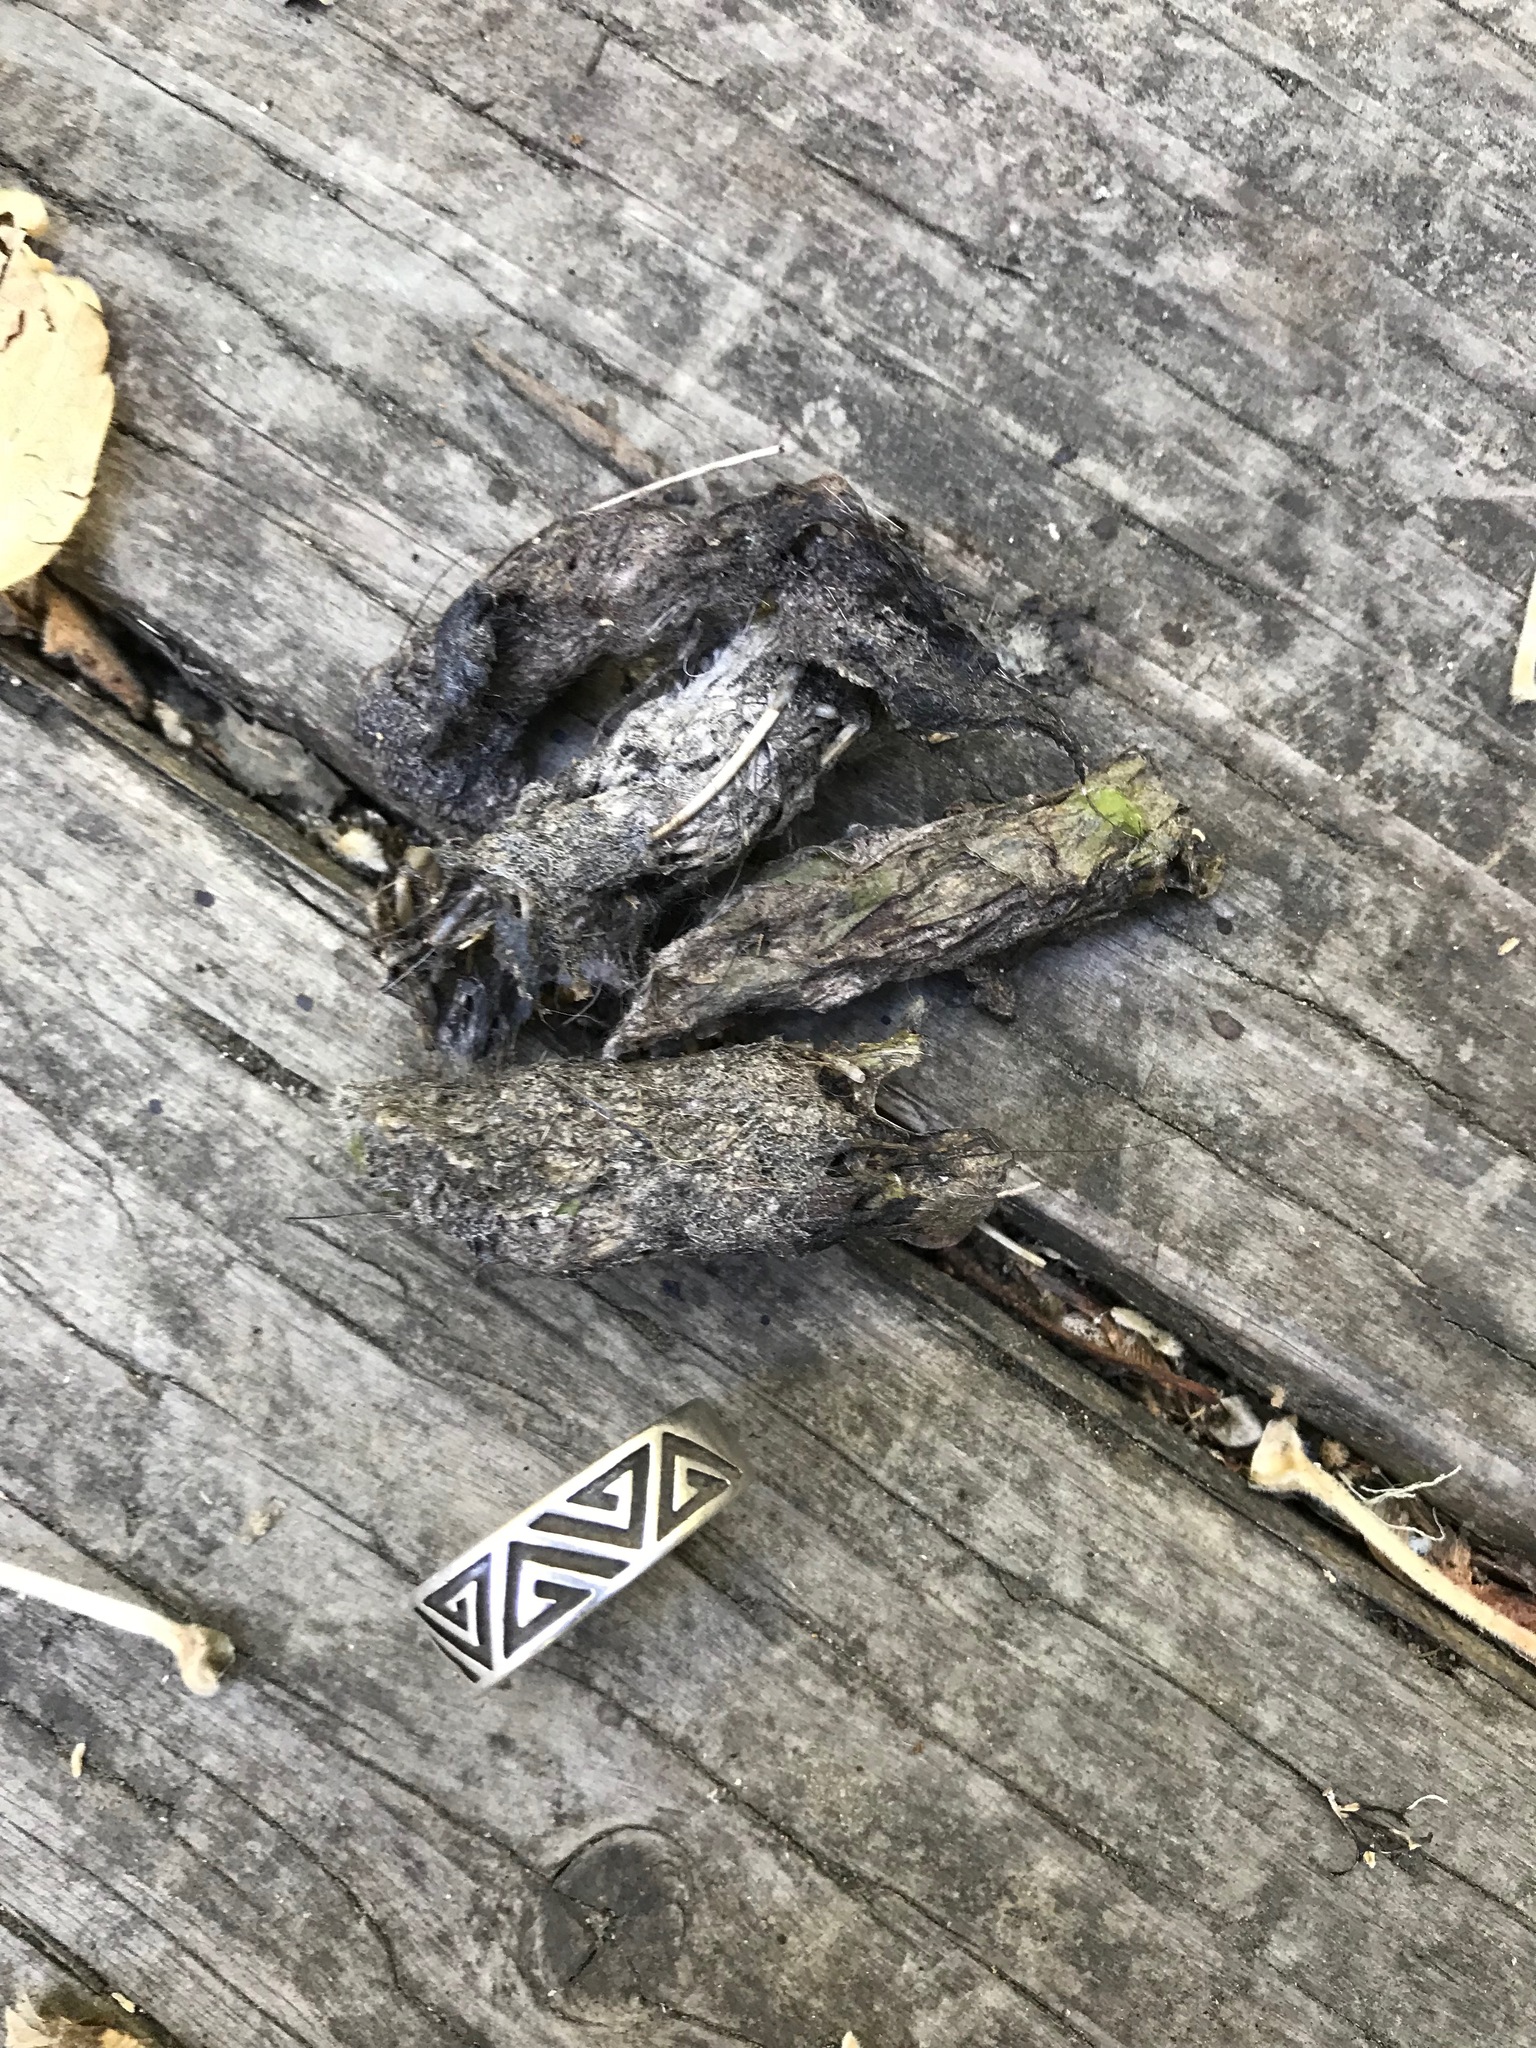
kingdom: Animalia
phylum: Chordata
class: Mammalia
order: Carnivora
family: Canidae
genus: Urocyon
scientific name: Urocyon cinereoargenteus
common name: Gray fox
